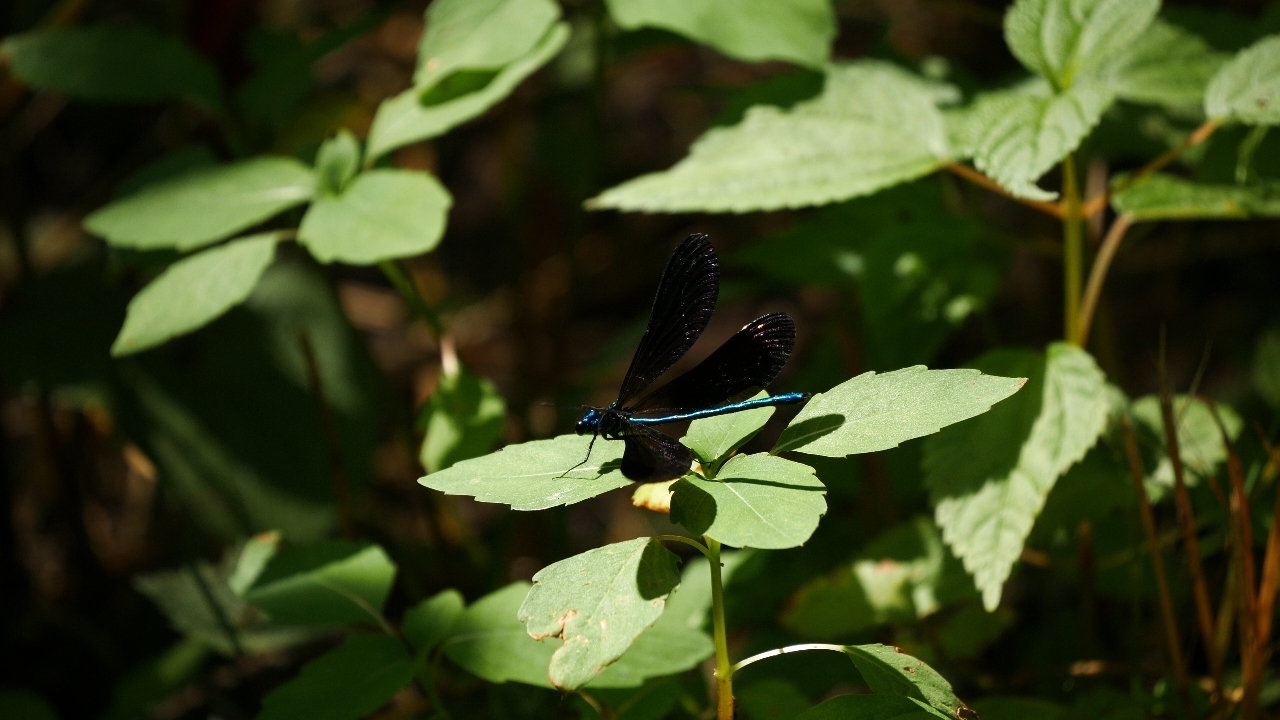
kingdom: Animalia
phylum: Arthropoda
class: Insecta
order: Odonata
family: Calopterygidae
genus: Calopteryx
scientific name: Calopteryx maculata
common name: Ebony jewelwing
